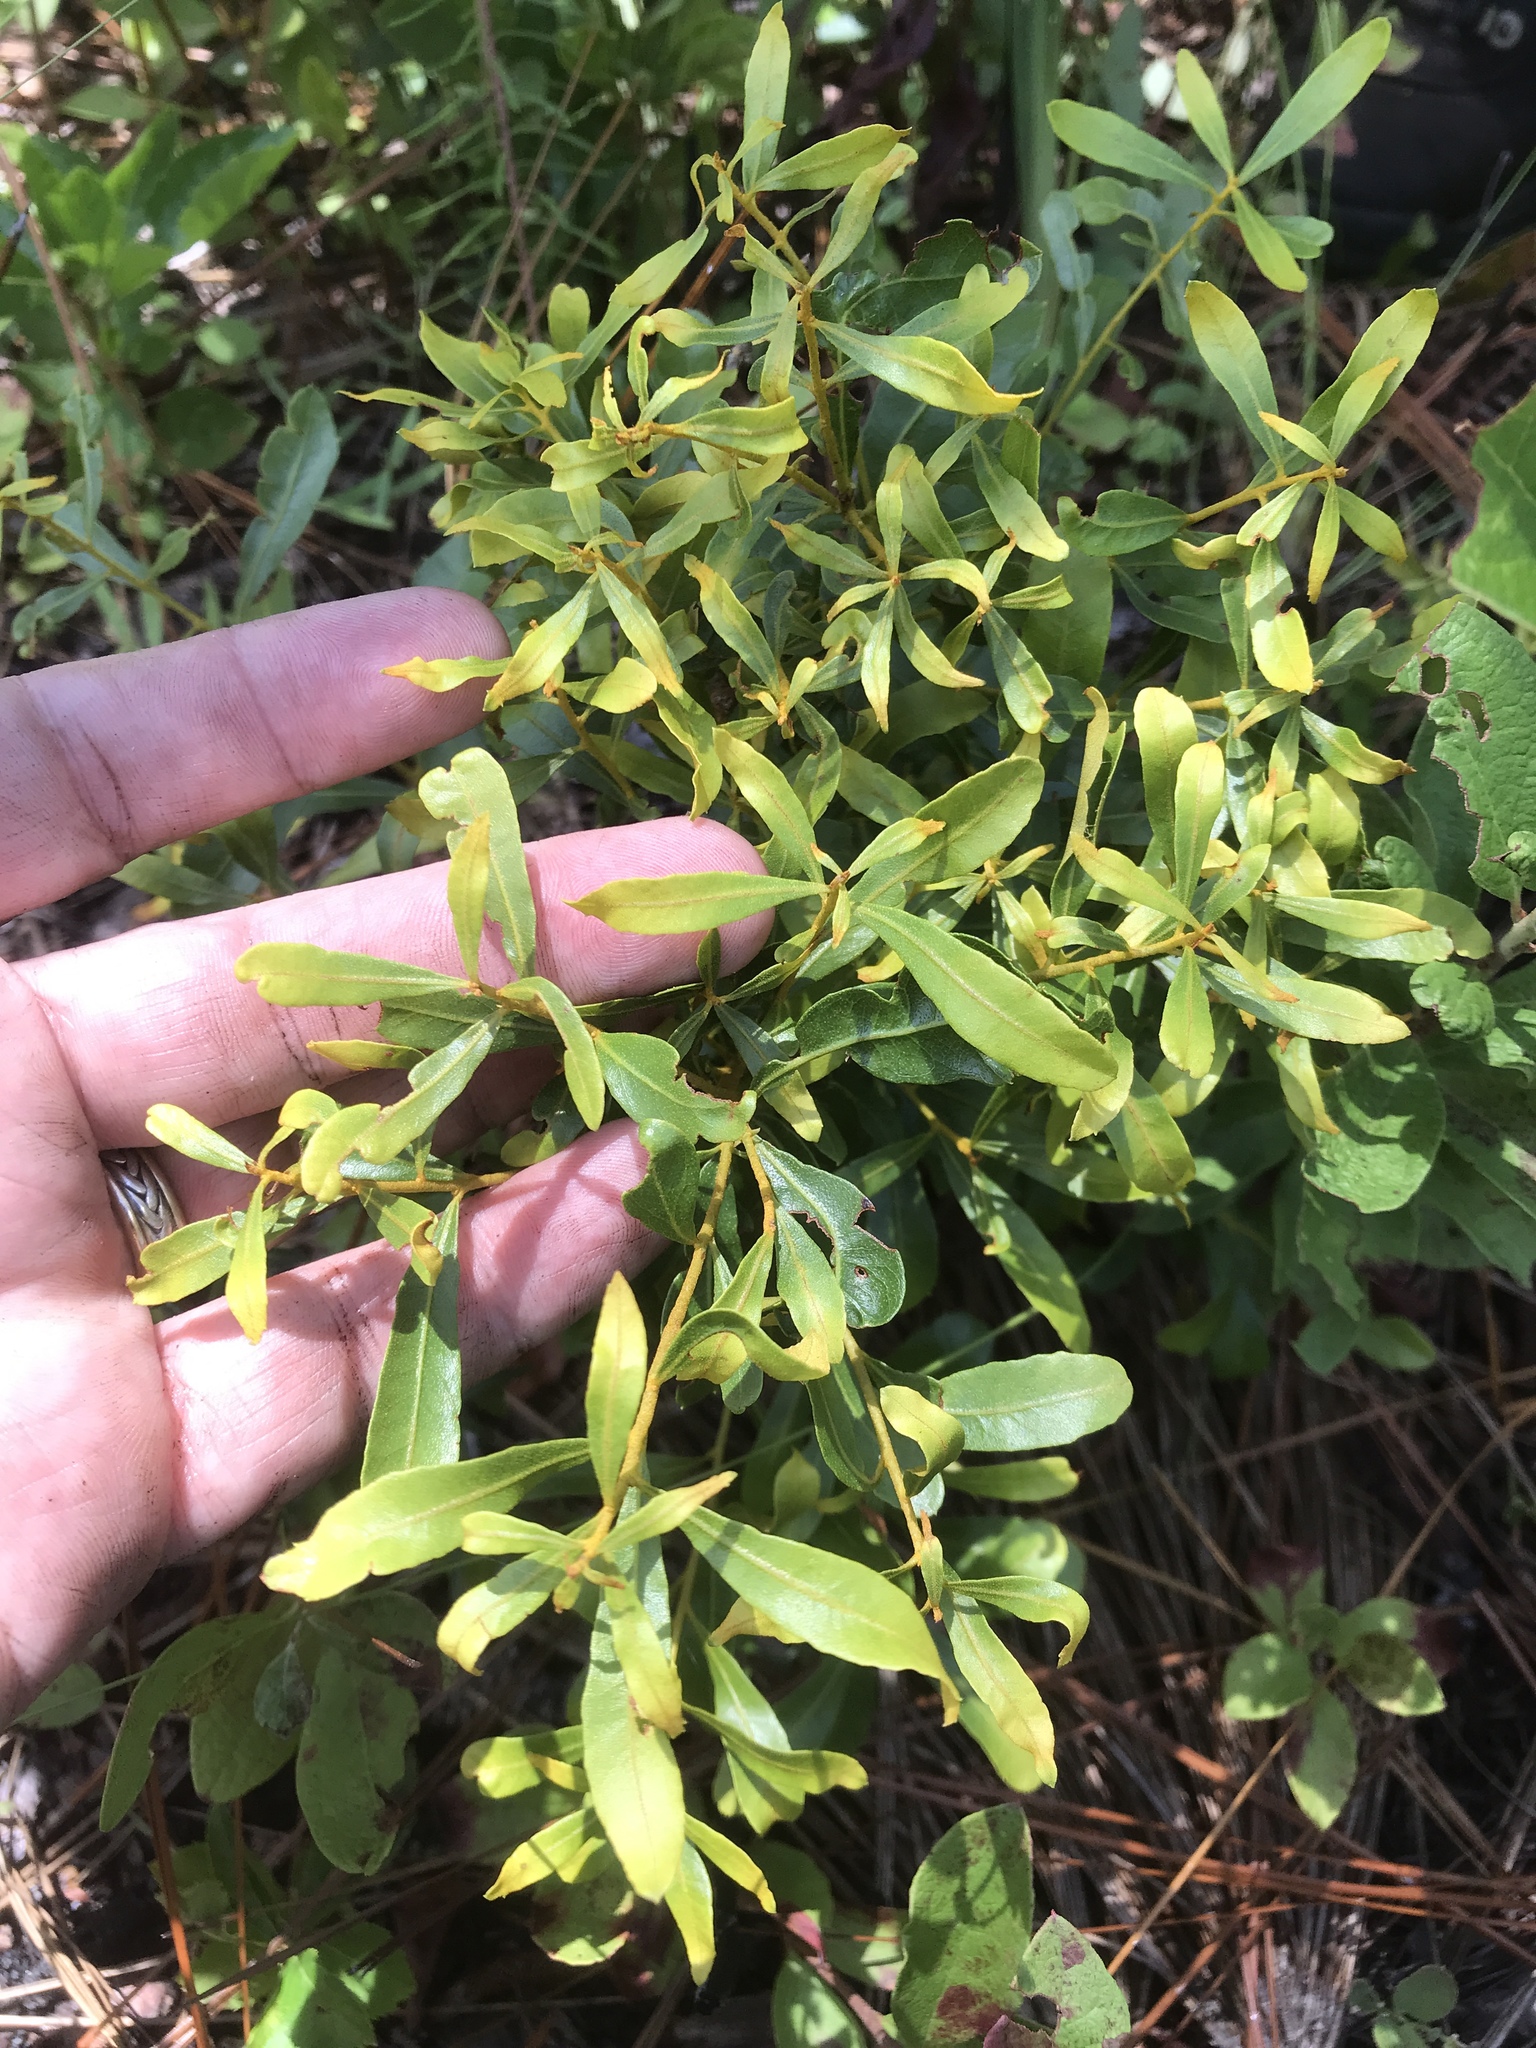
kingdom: Plantae
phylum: Tracheophyta
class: Magnoliopsida
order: Fagales
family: Myricaceae
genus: Morella
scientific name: Morella cerifera
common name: Wax myrtle
